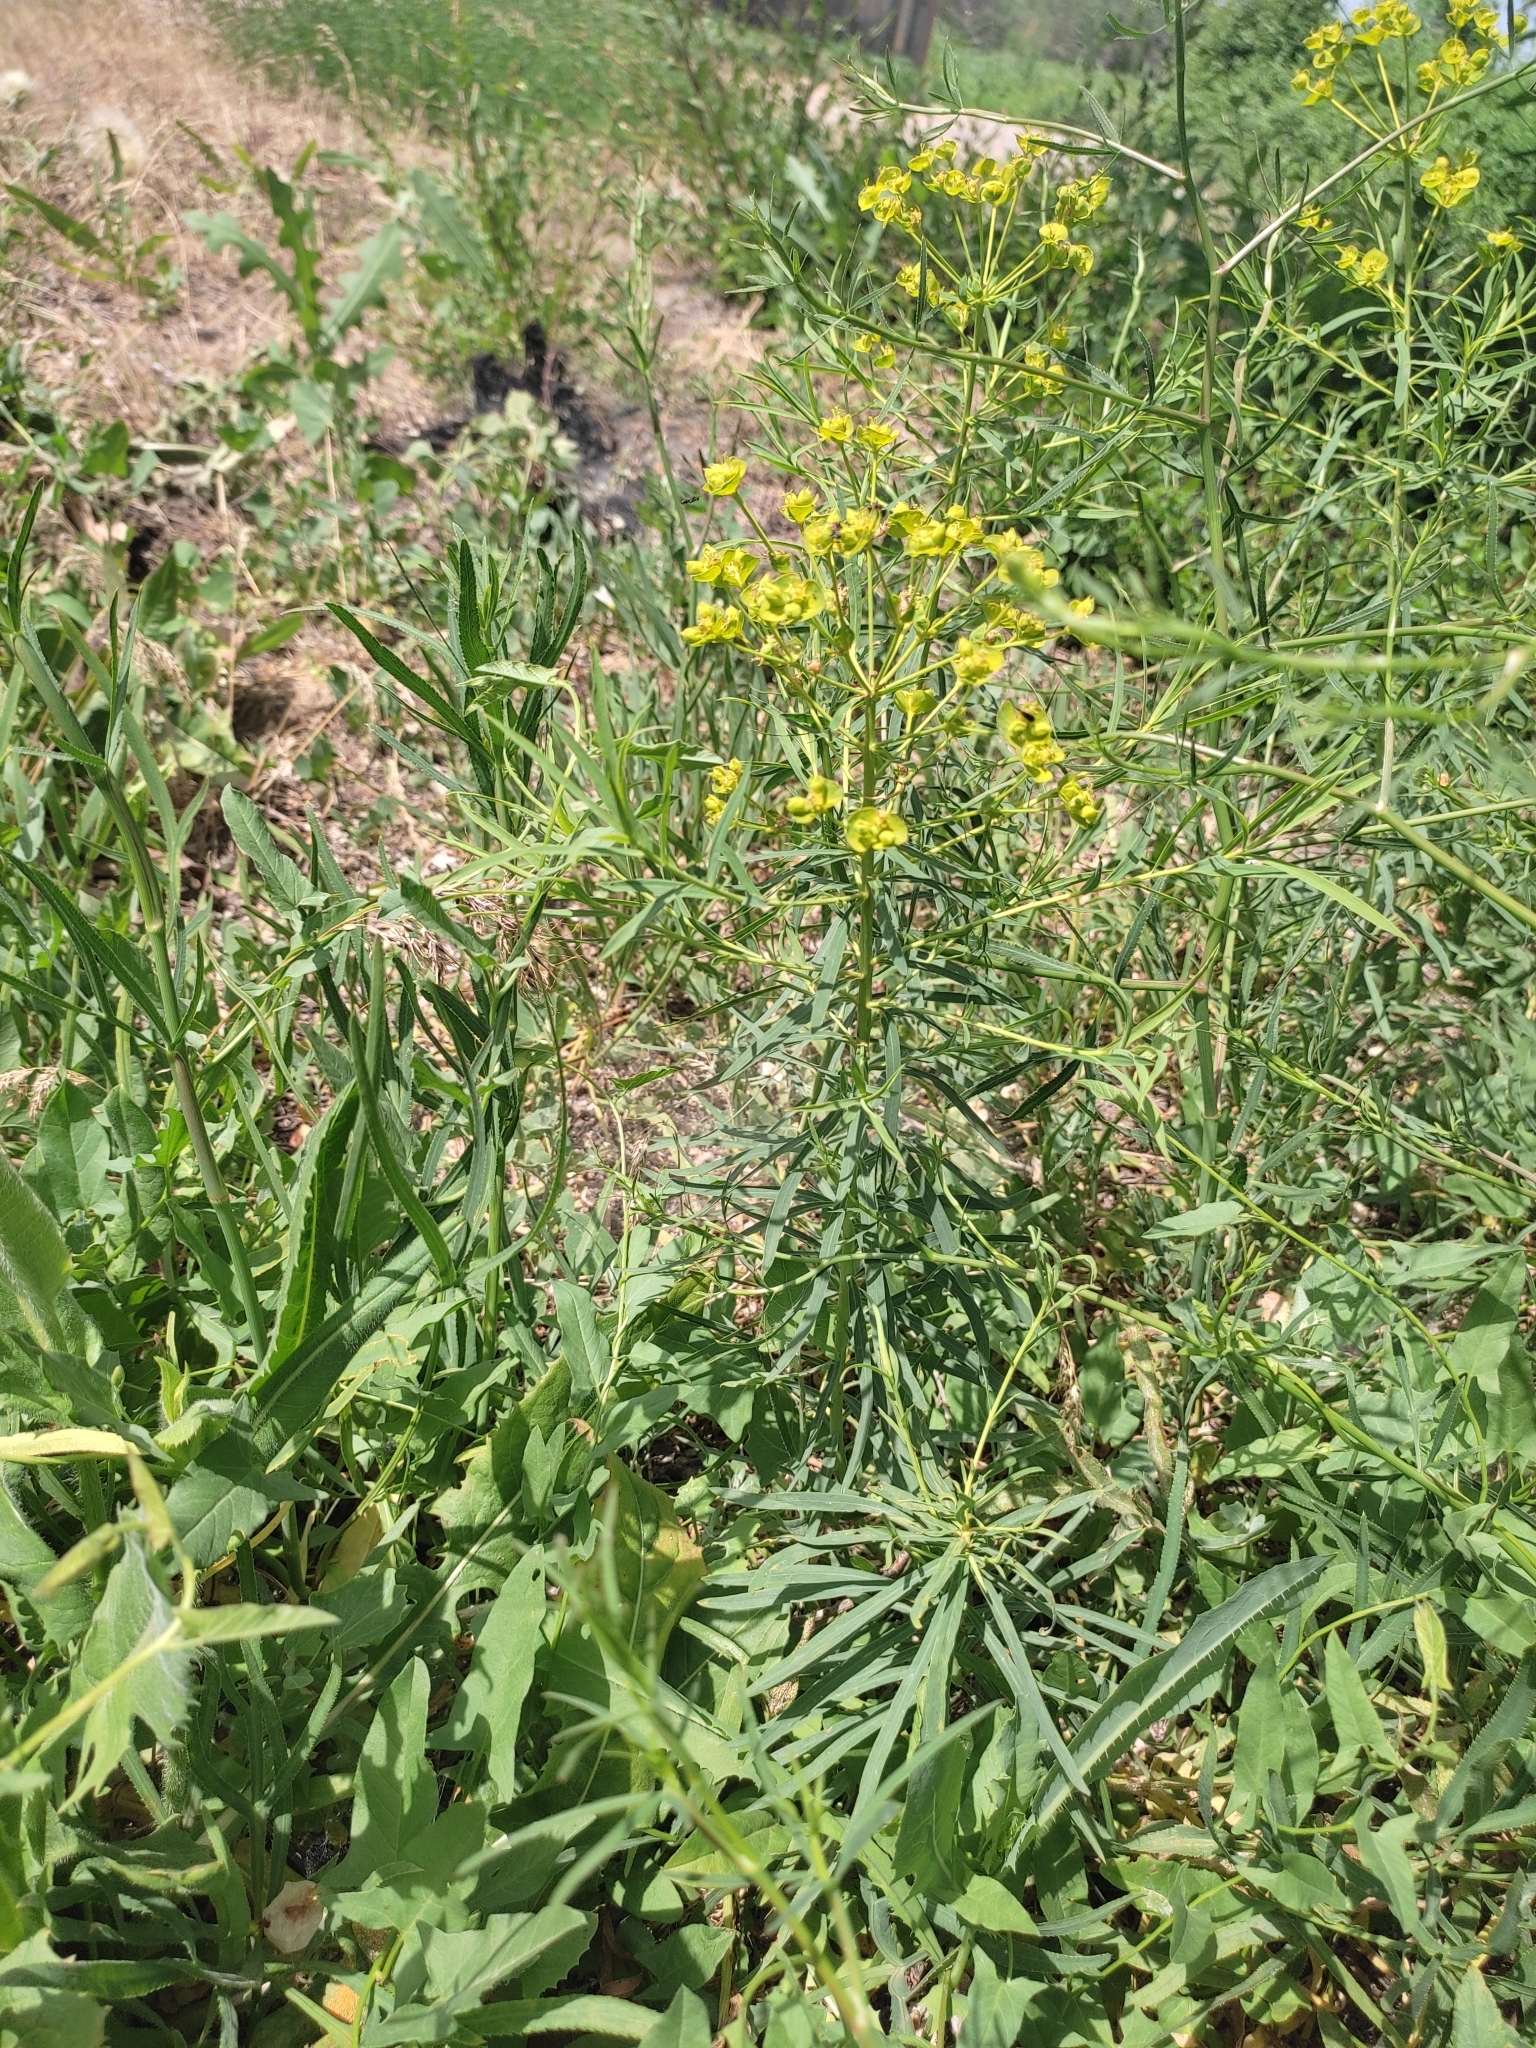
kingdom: Plantae
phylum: Tracheophyta
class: Magnoliopsida
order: Malpighiales
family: Euphorbiaceae
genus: Euphorbia
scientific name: Euphorbia virgata
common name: Leafy spurge
